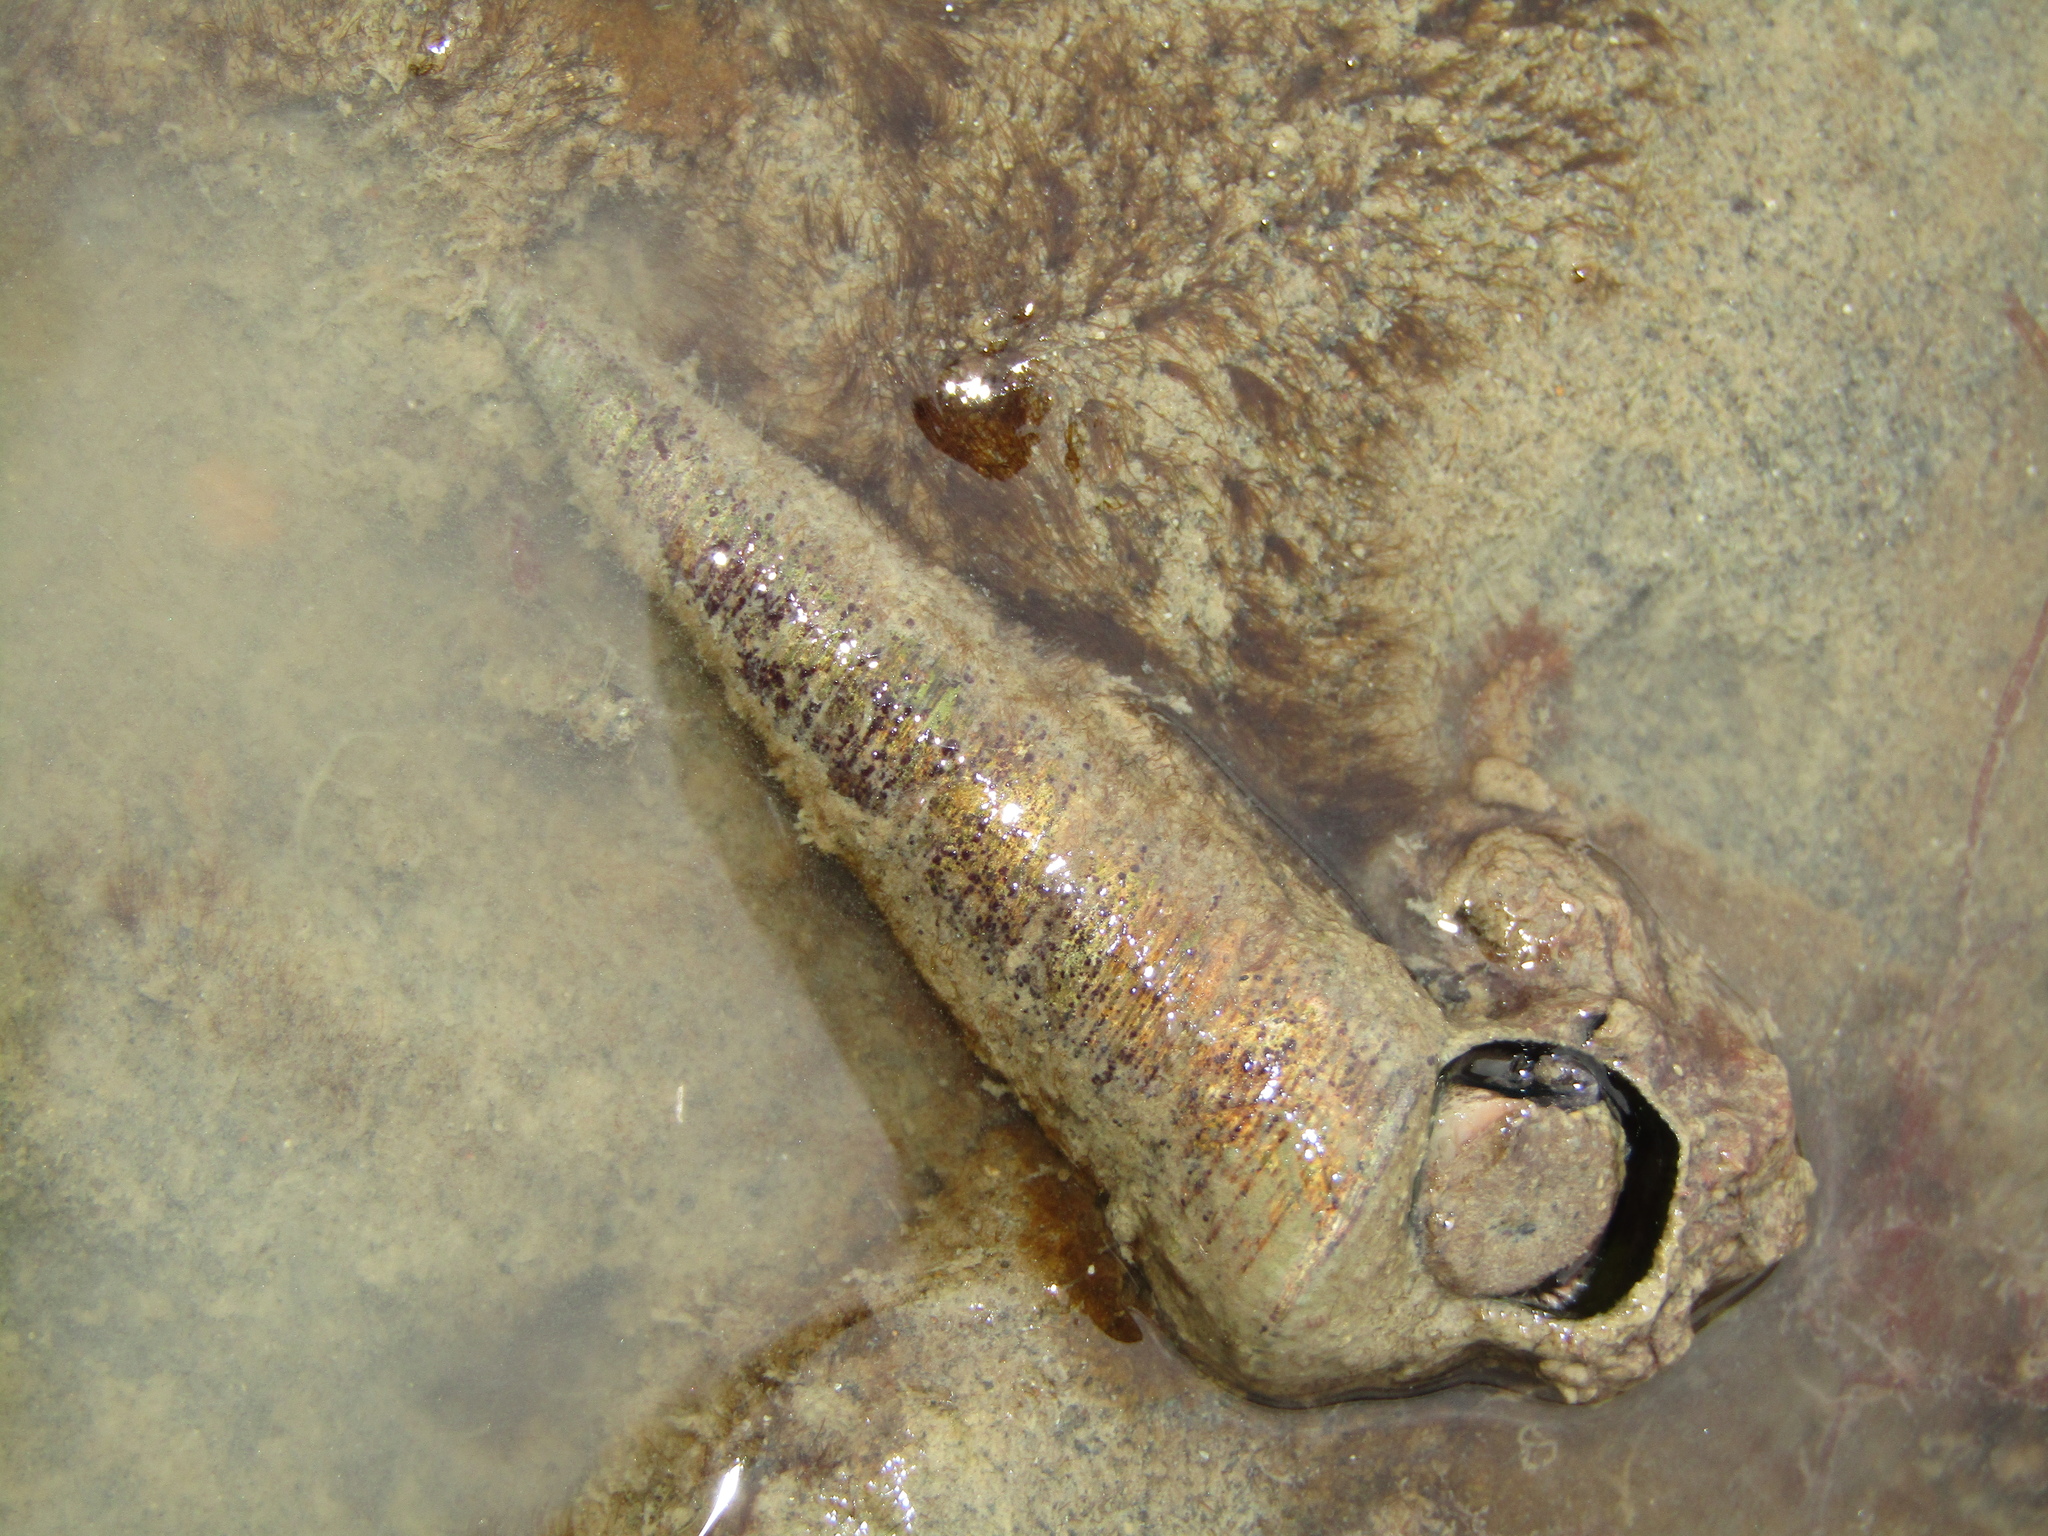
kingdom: Animalia
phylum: Mollusca
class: Gastropoda
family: Turritellidae
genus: Maoricolpus
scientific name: Maoricolpus roseus
